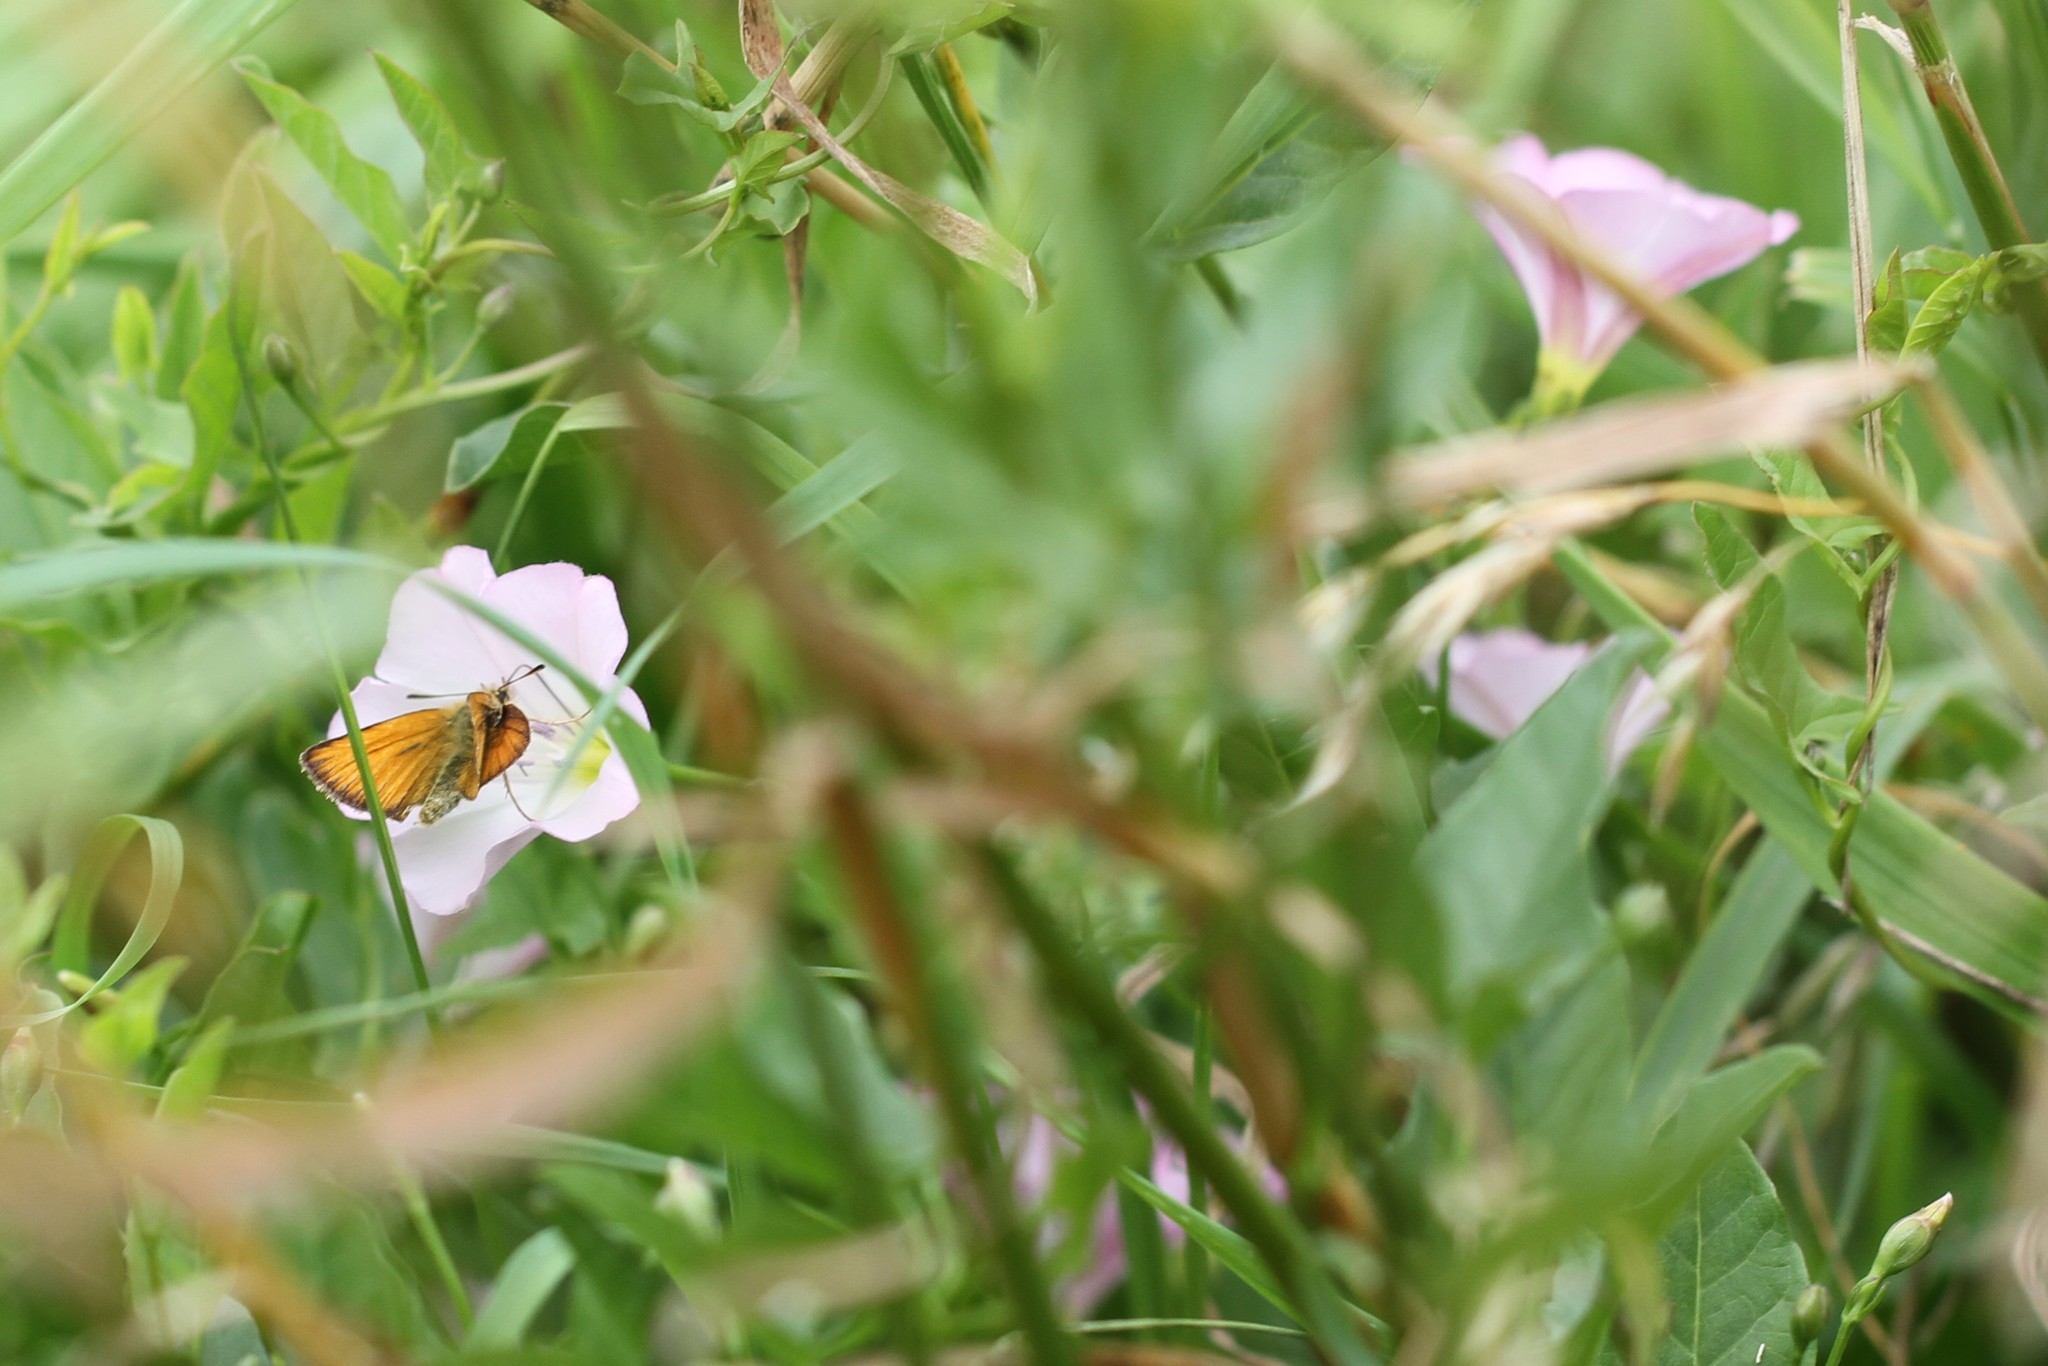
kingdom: Animalia
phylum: Arthropoda
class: Insecta
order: Lepidoptera
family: Hesperiidae
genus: Thymelicus
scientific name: Thymelicus lineola
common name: Essex skipper
